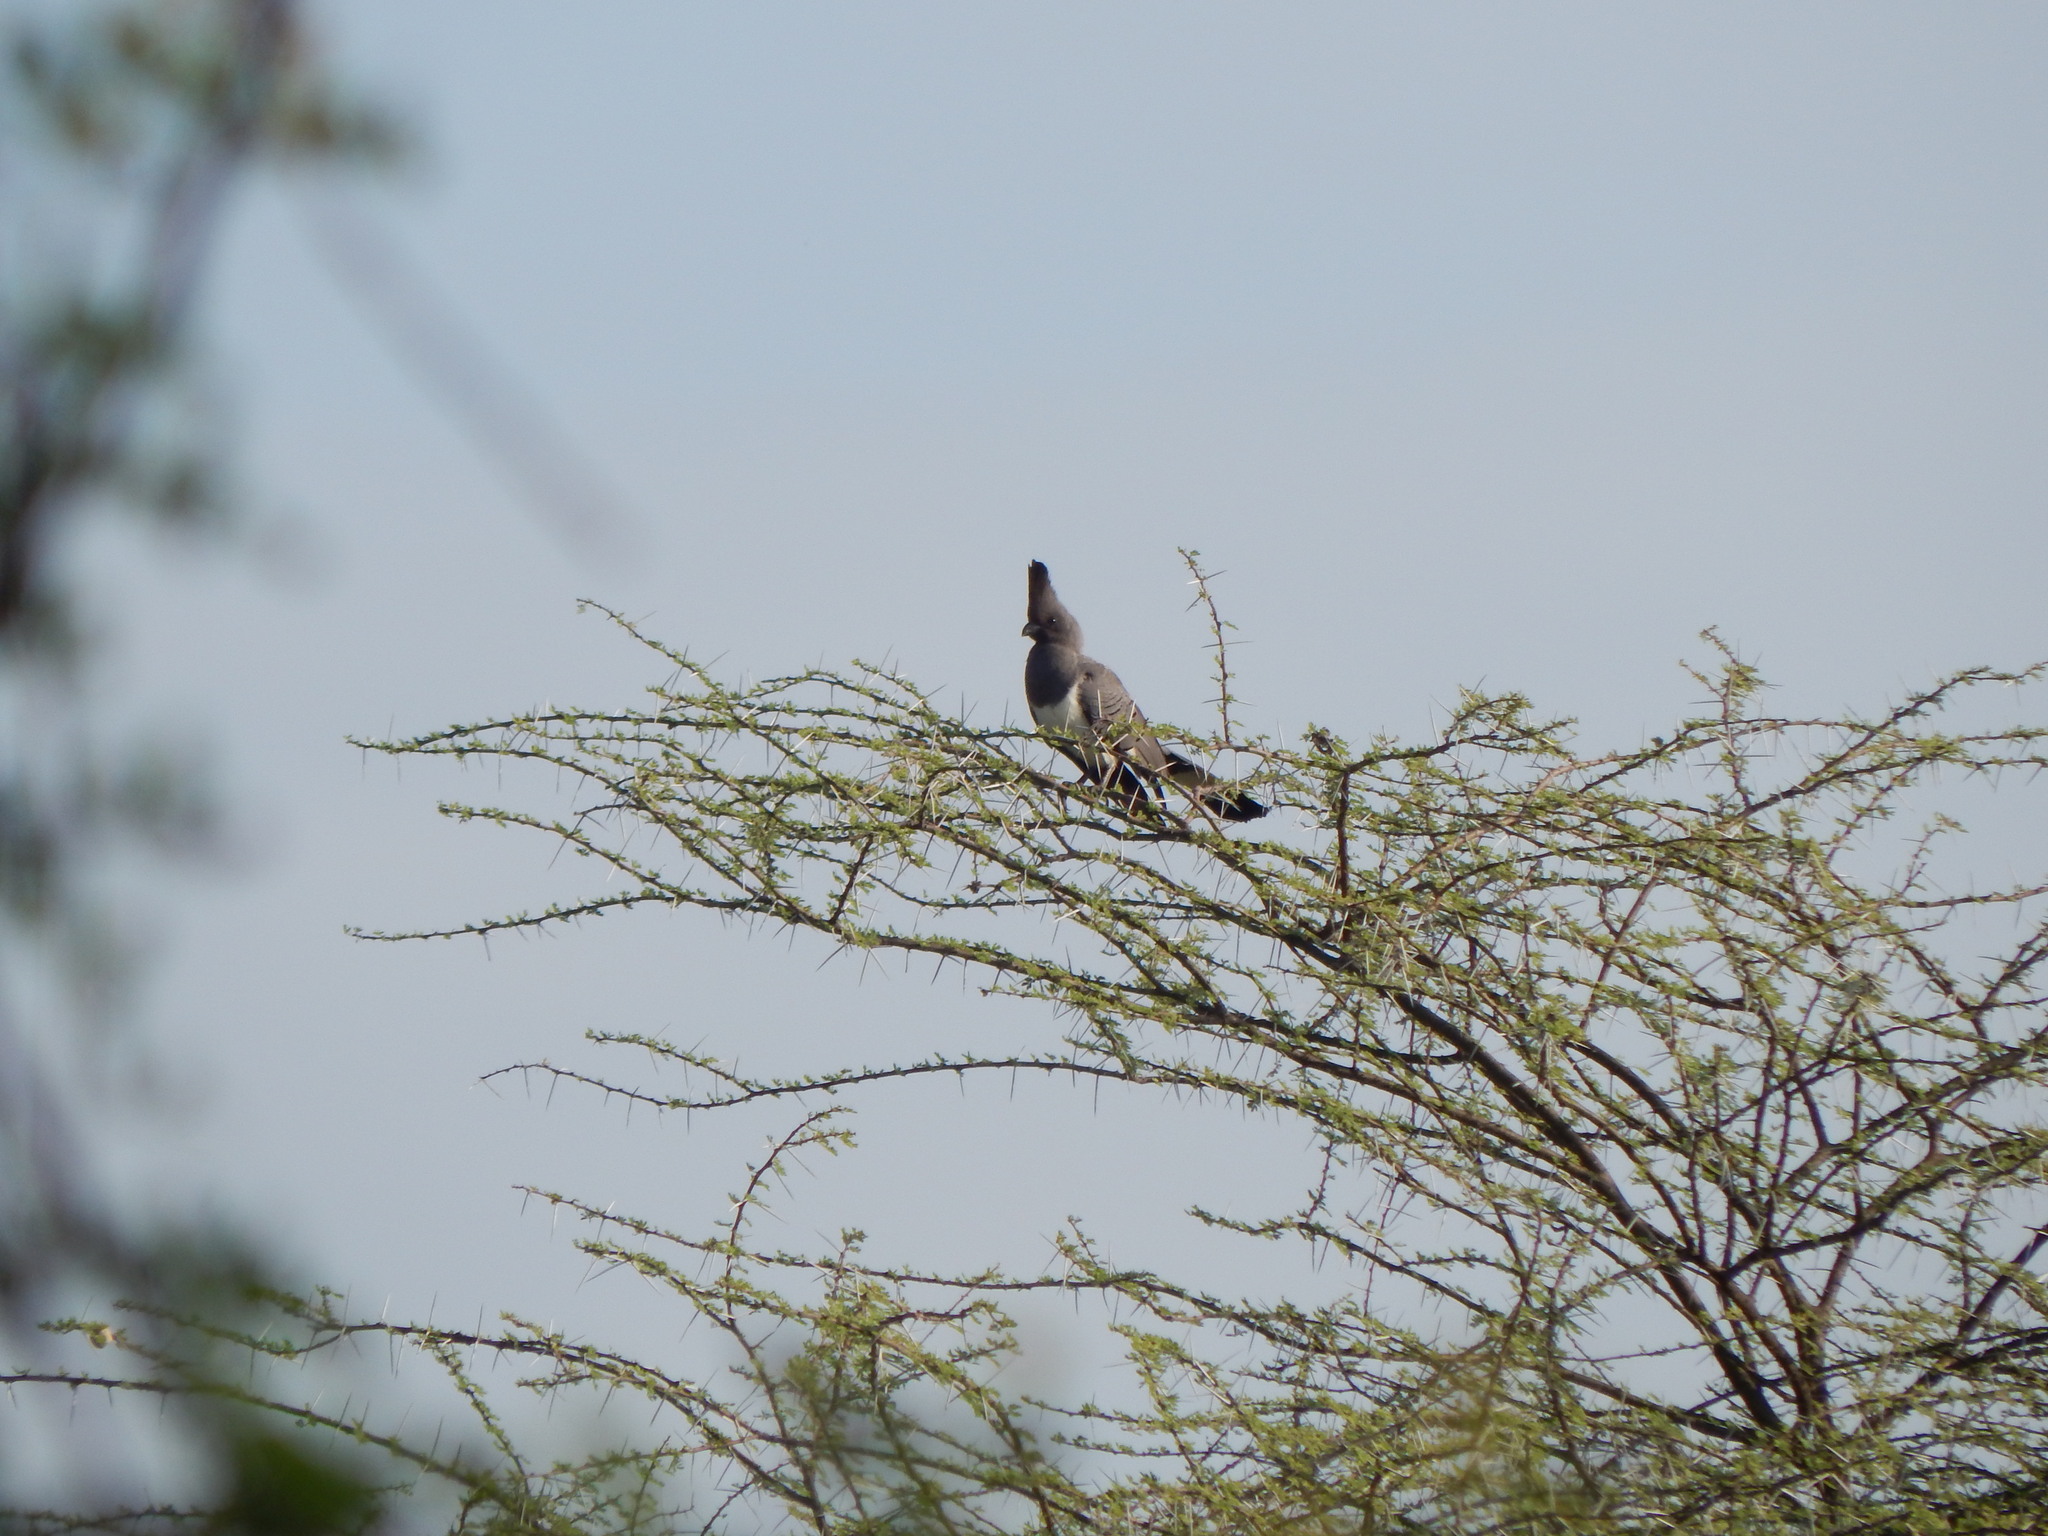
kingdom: Animalia
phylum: Chordata
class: Aves
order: Musophagiformes
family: Musophagidae
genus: Corythaixoides
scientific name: Corythaixoides leucogaster
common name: White-bellied go-away-bird
